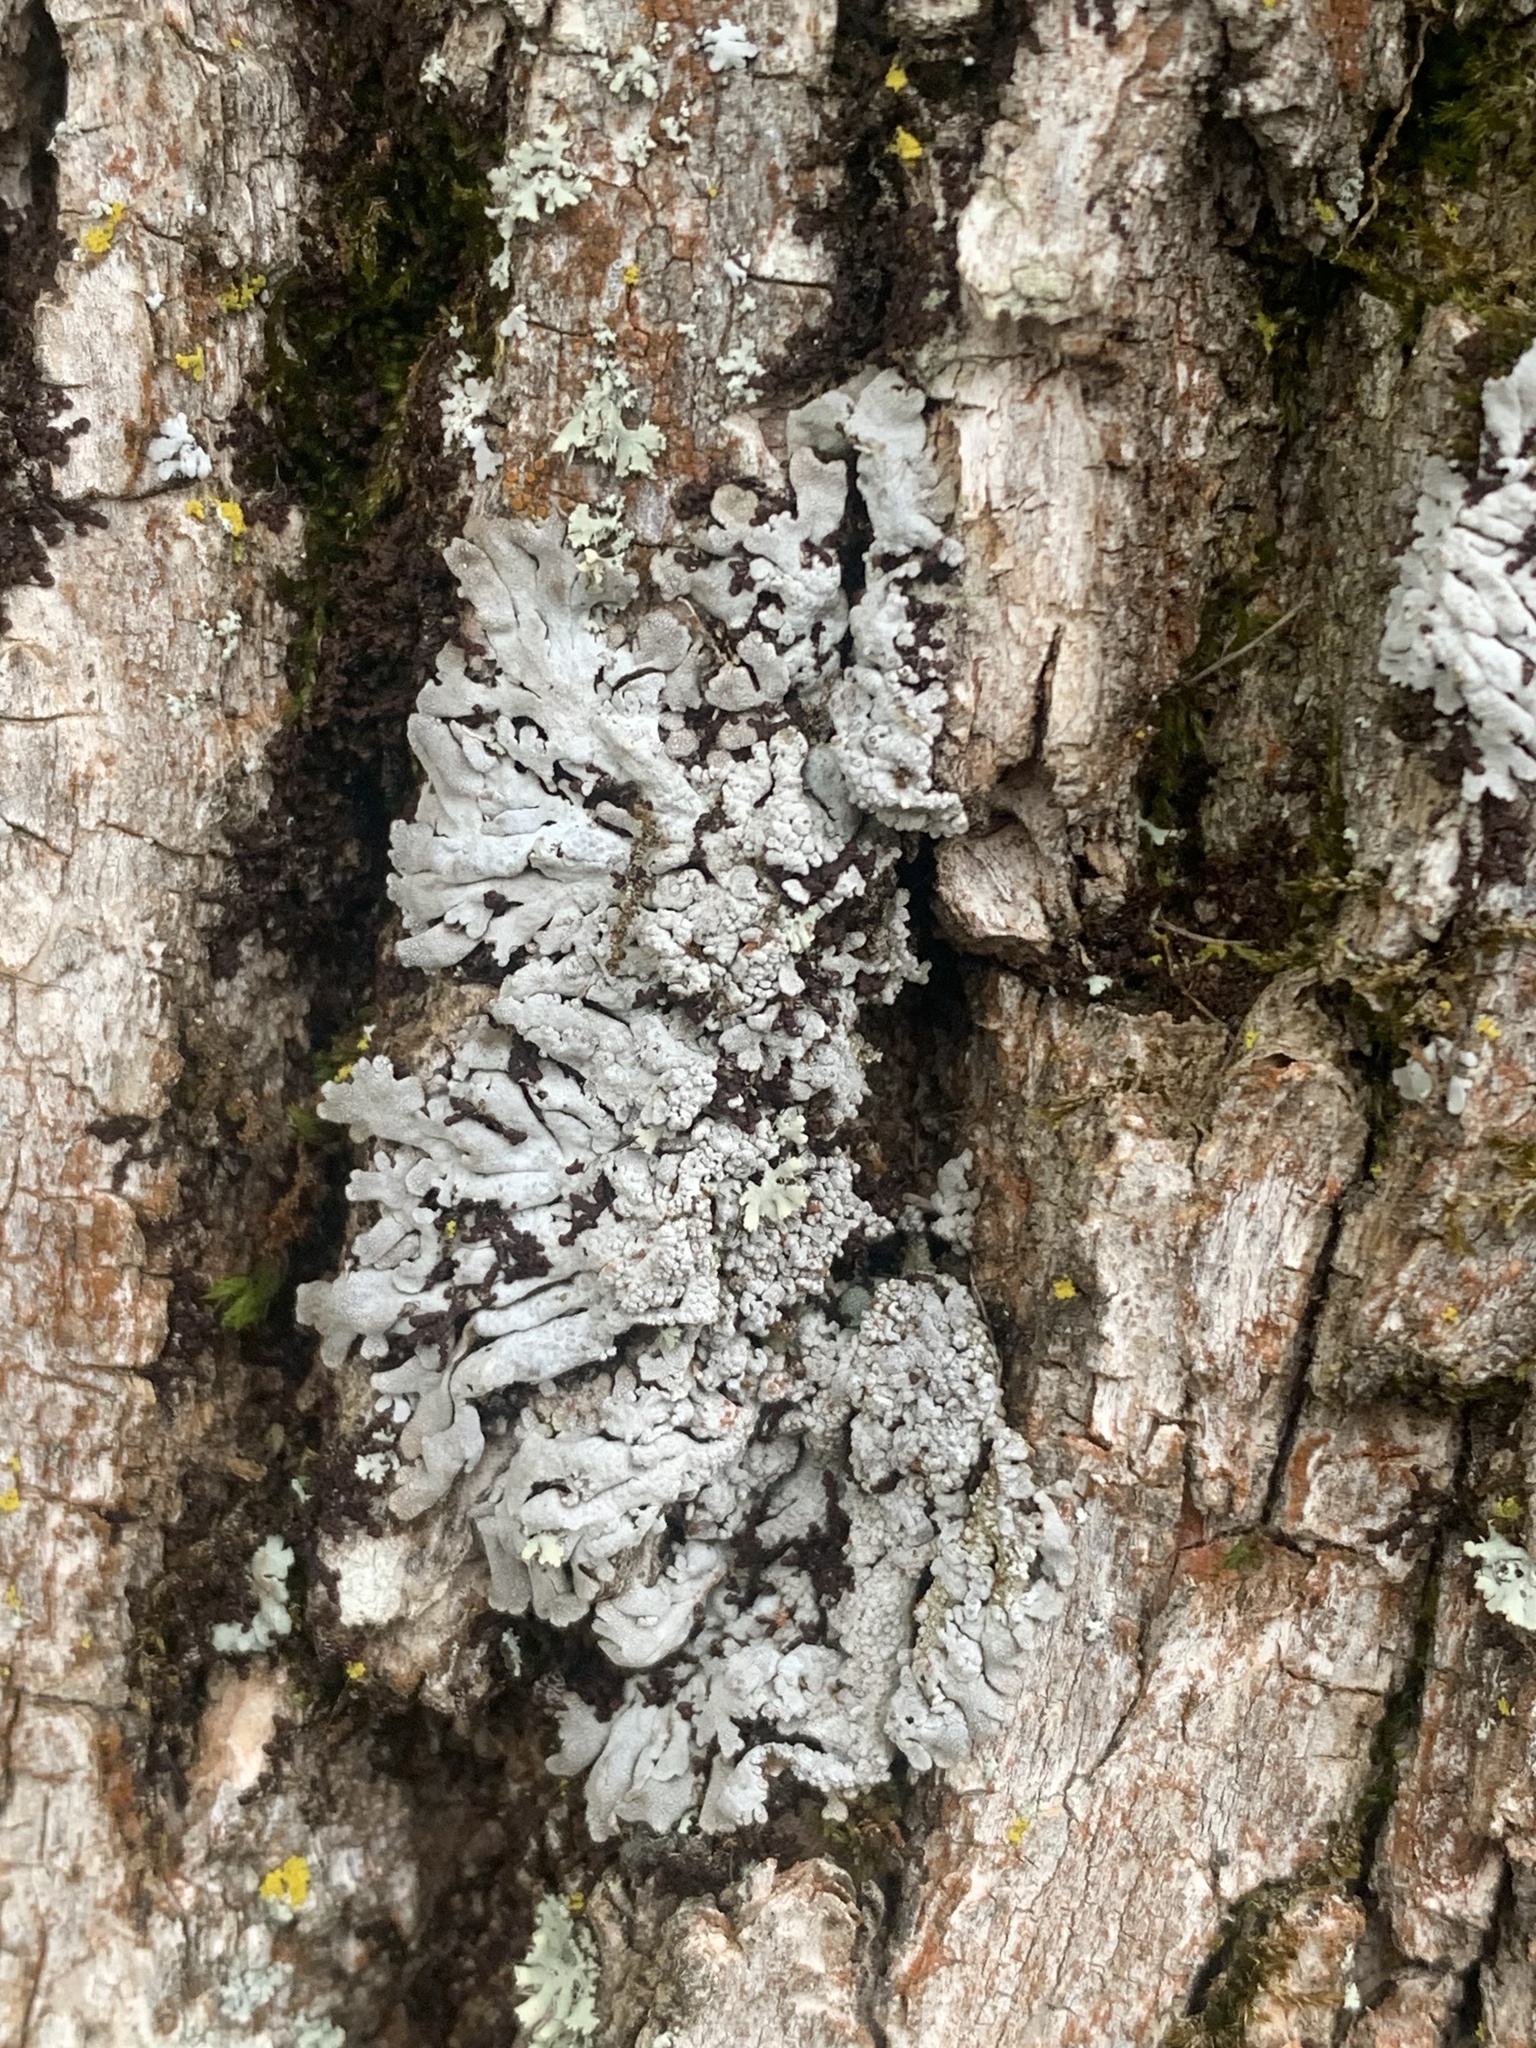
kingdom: Fungi
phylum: Ascomycota
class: Lecanoromycetes
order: Caliciales
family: Physciaceae
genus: Physconia
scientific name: Physconia subpallida
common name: Pale-belly frost lichen
